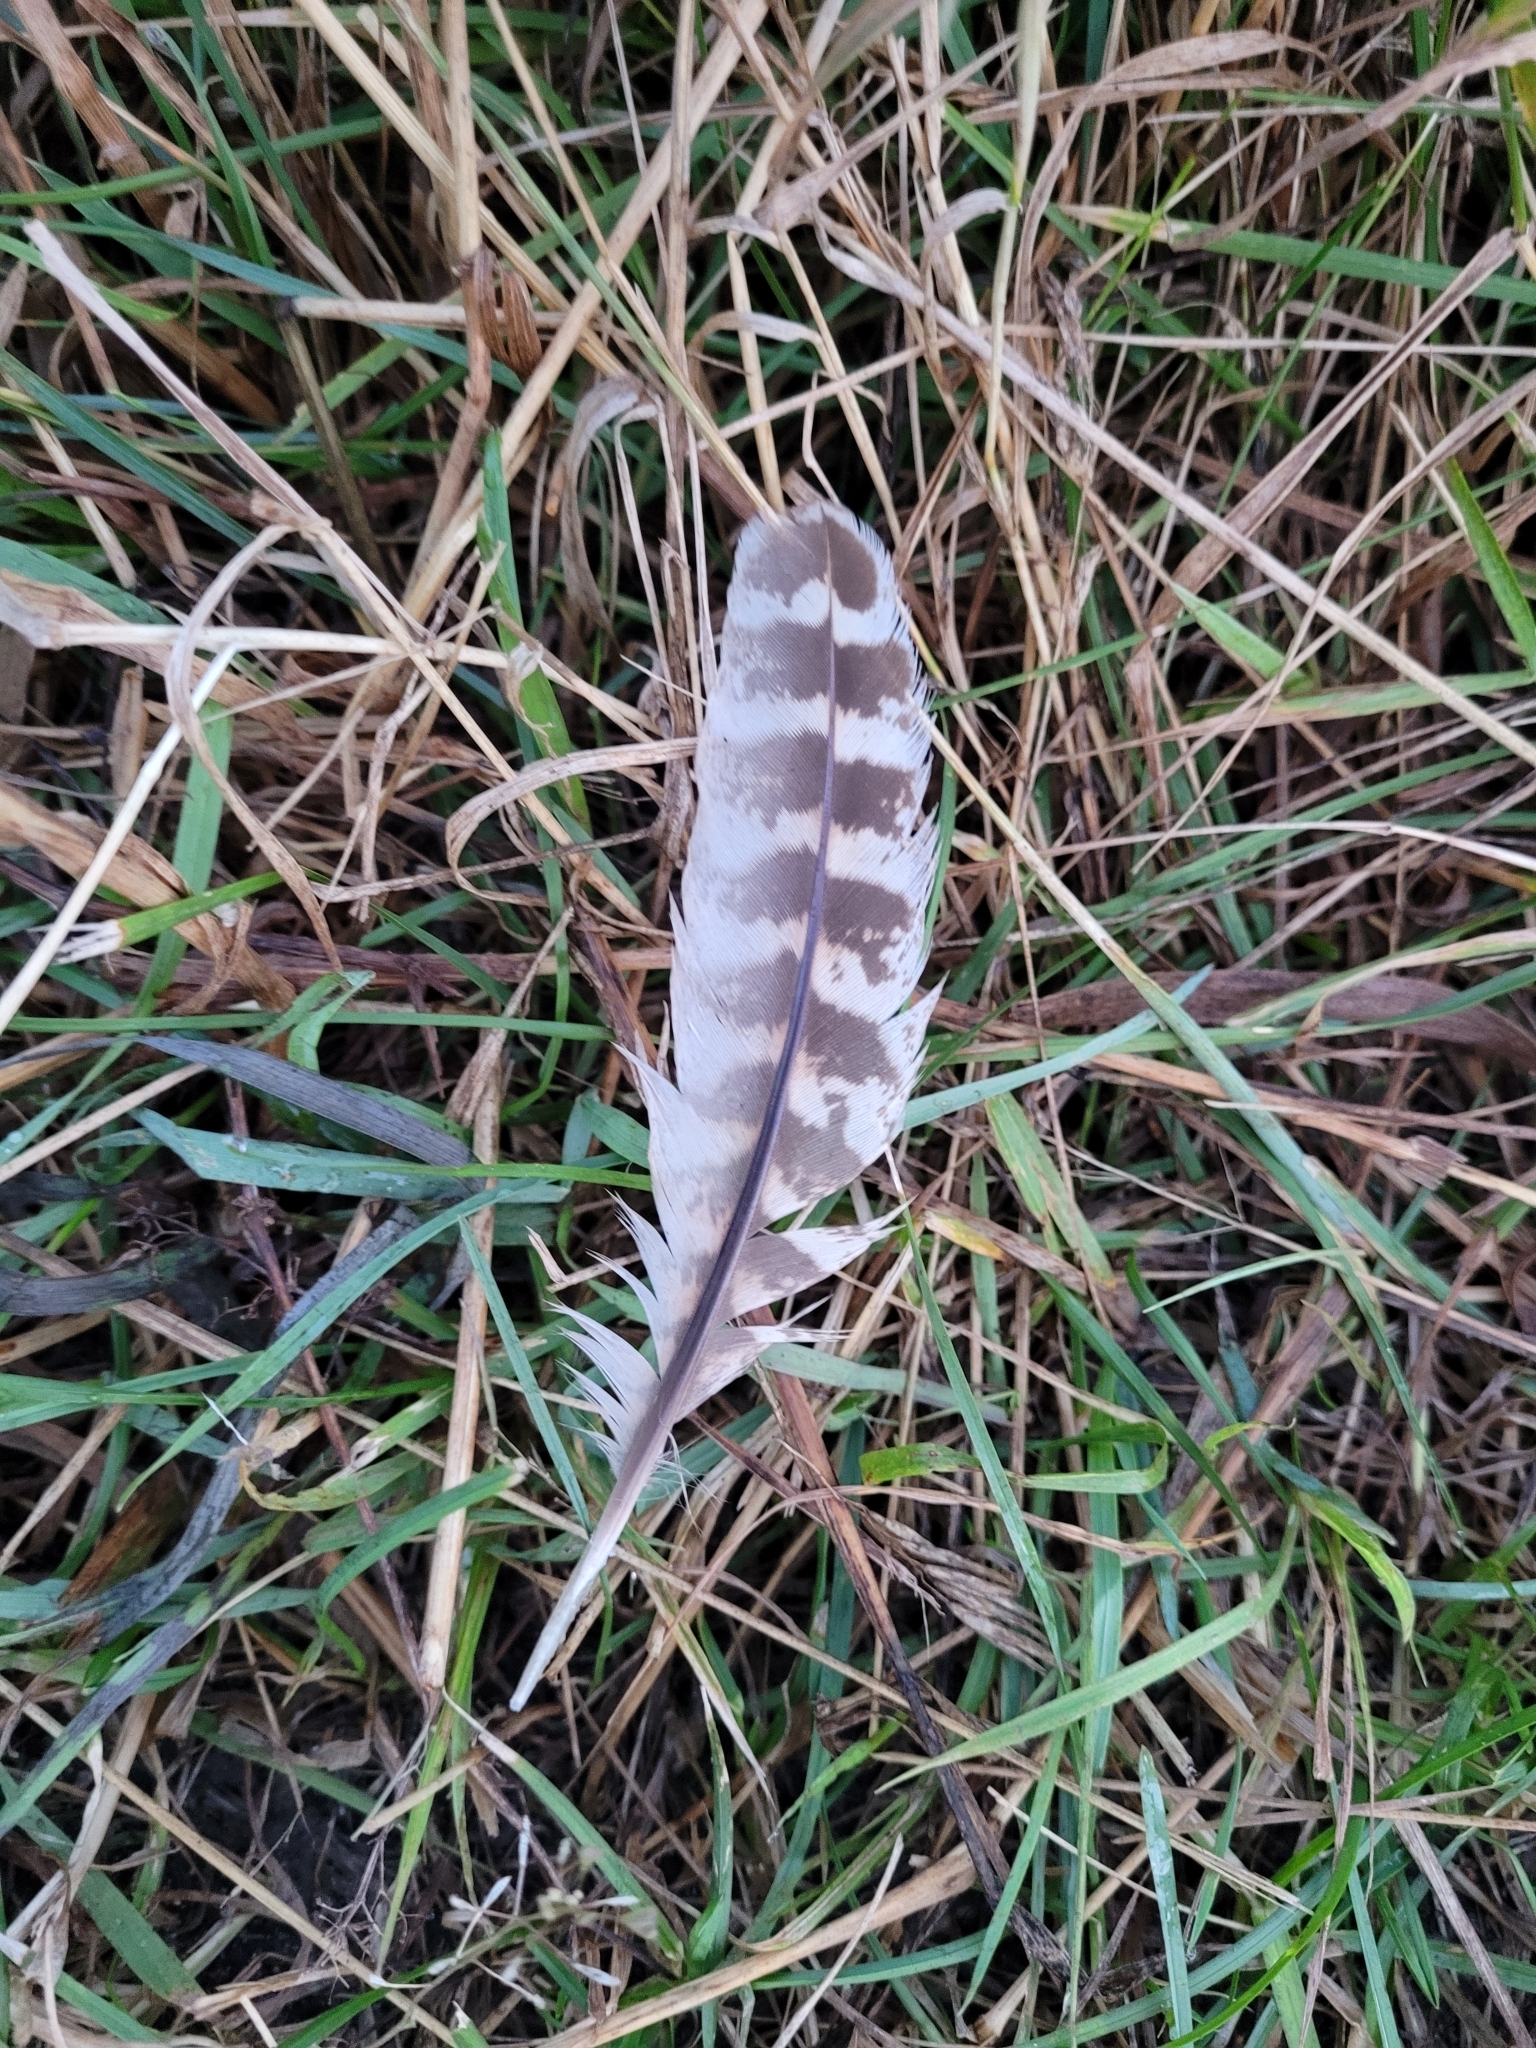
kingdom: Animalia
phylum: Chordata
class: Aves
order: Galliformes
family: Phasianidae
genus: Phasianus
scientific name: Phasianus colchicus
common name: Common pheasant
